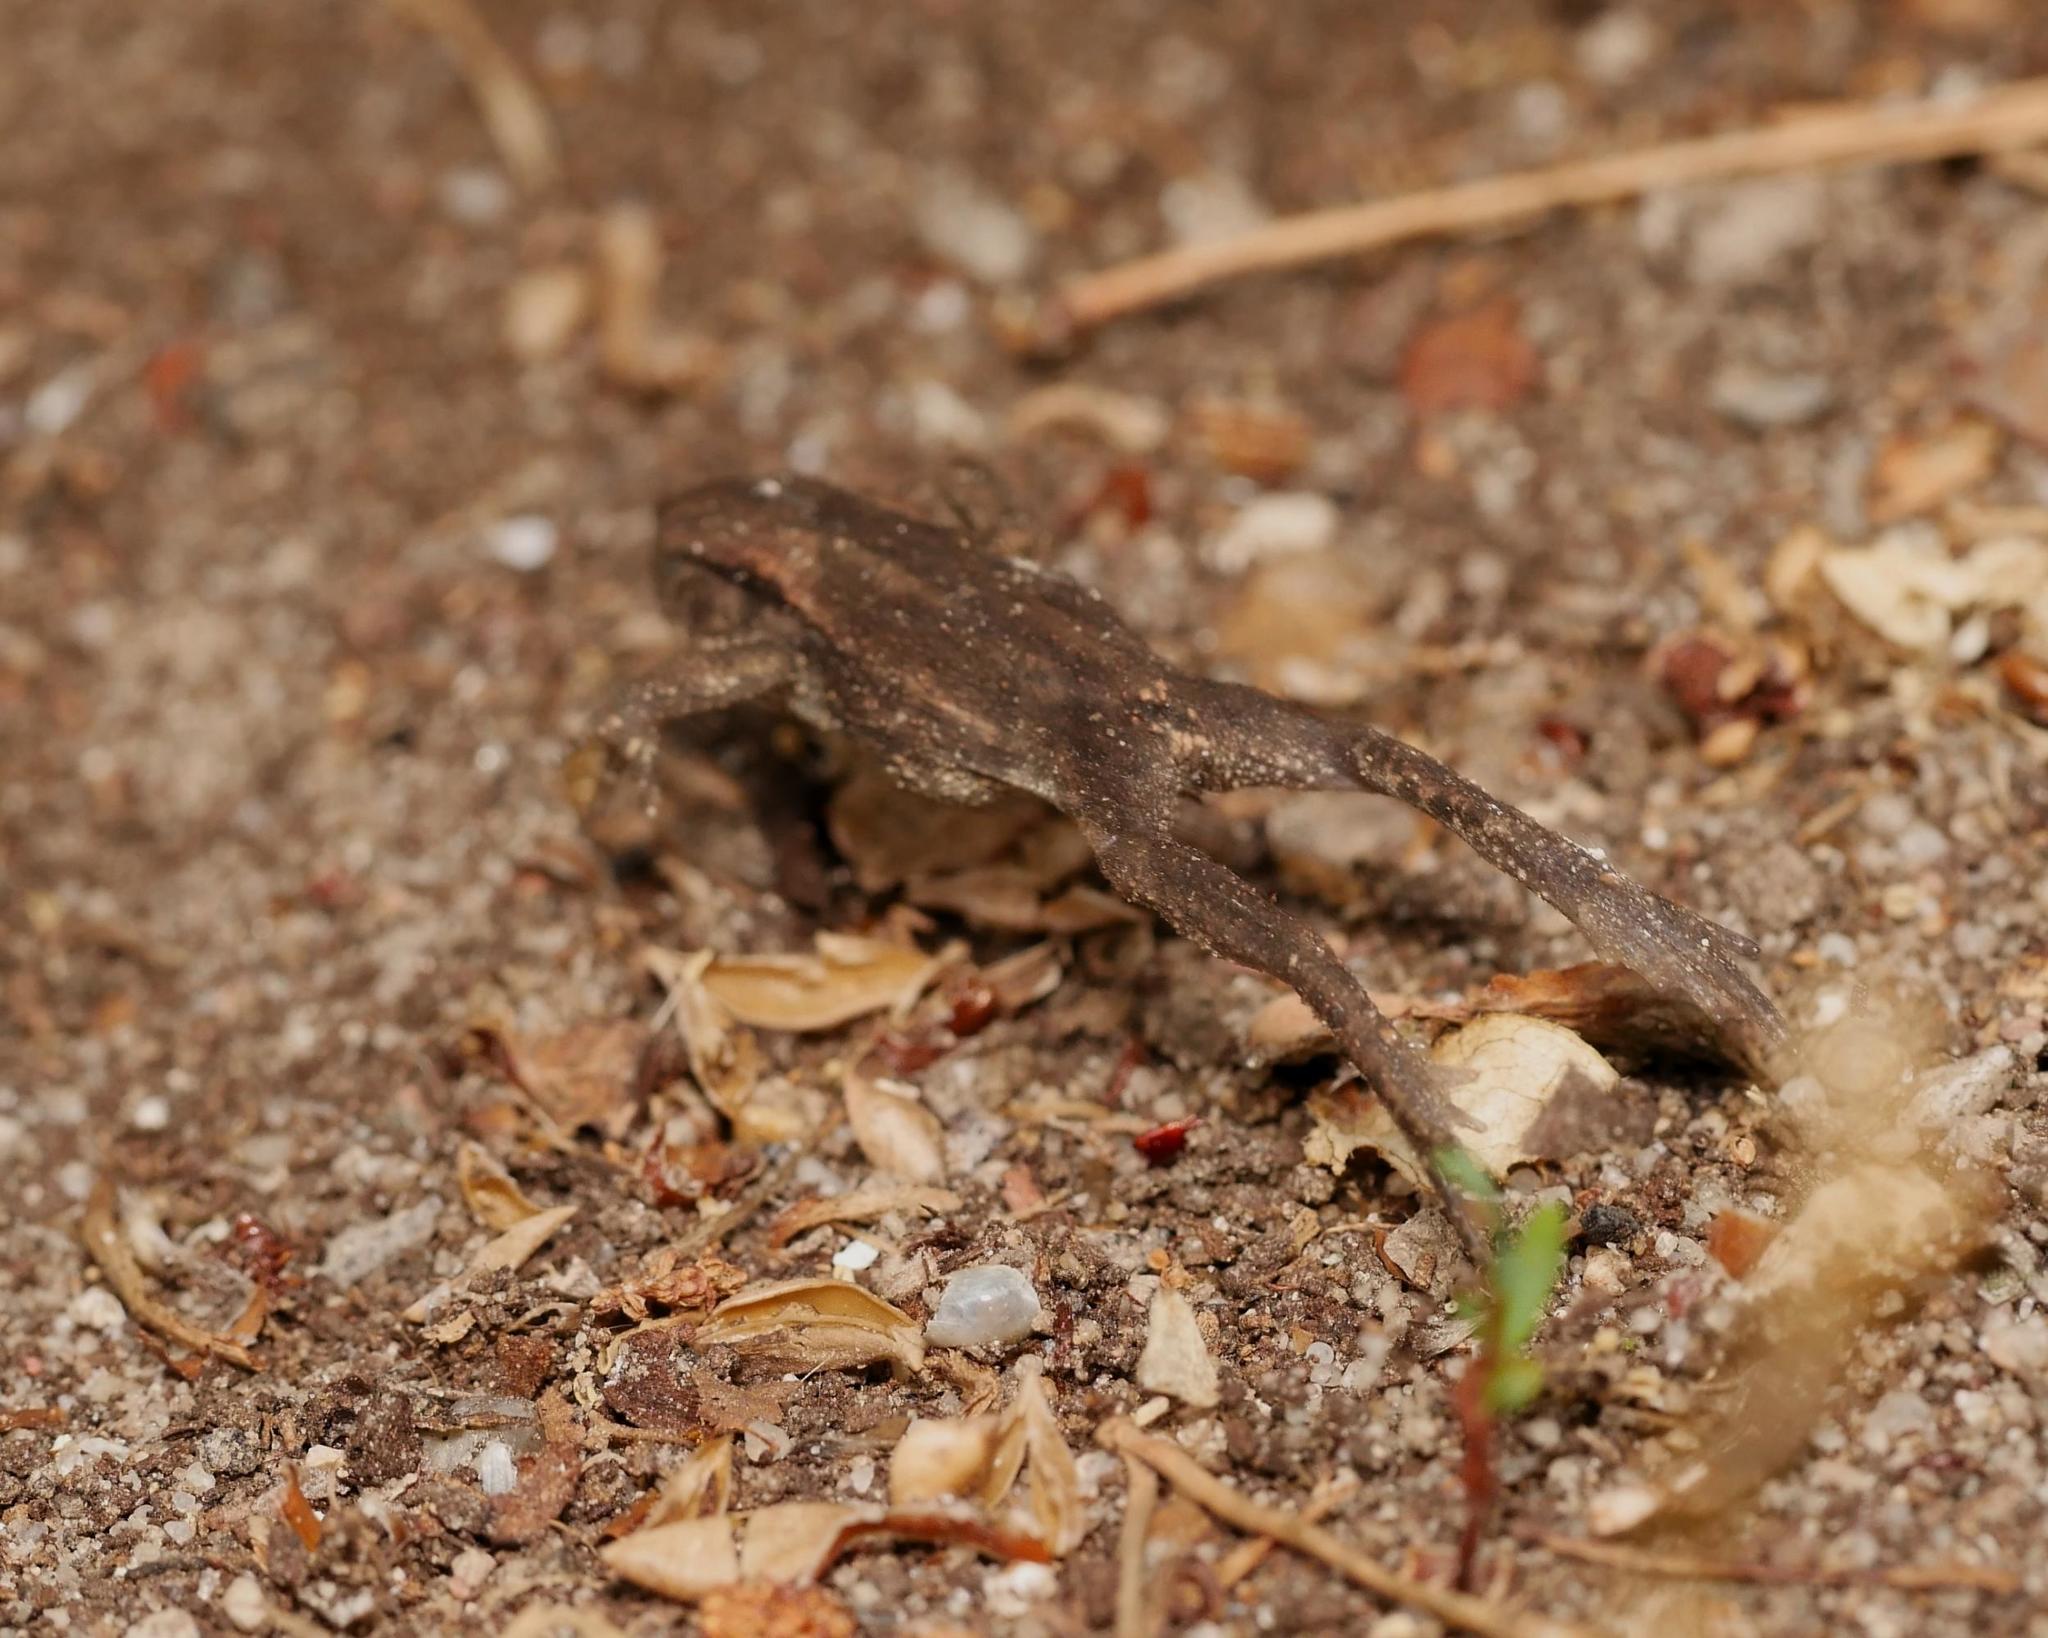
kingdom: Animalia
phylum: Chordata
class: Amphibia
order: Anura
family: Bufonidae
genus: Bufo
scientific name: Bufo bufo
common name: Common toad
